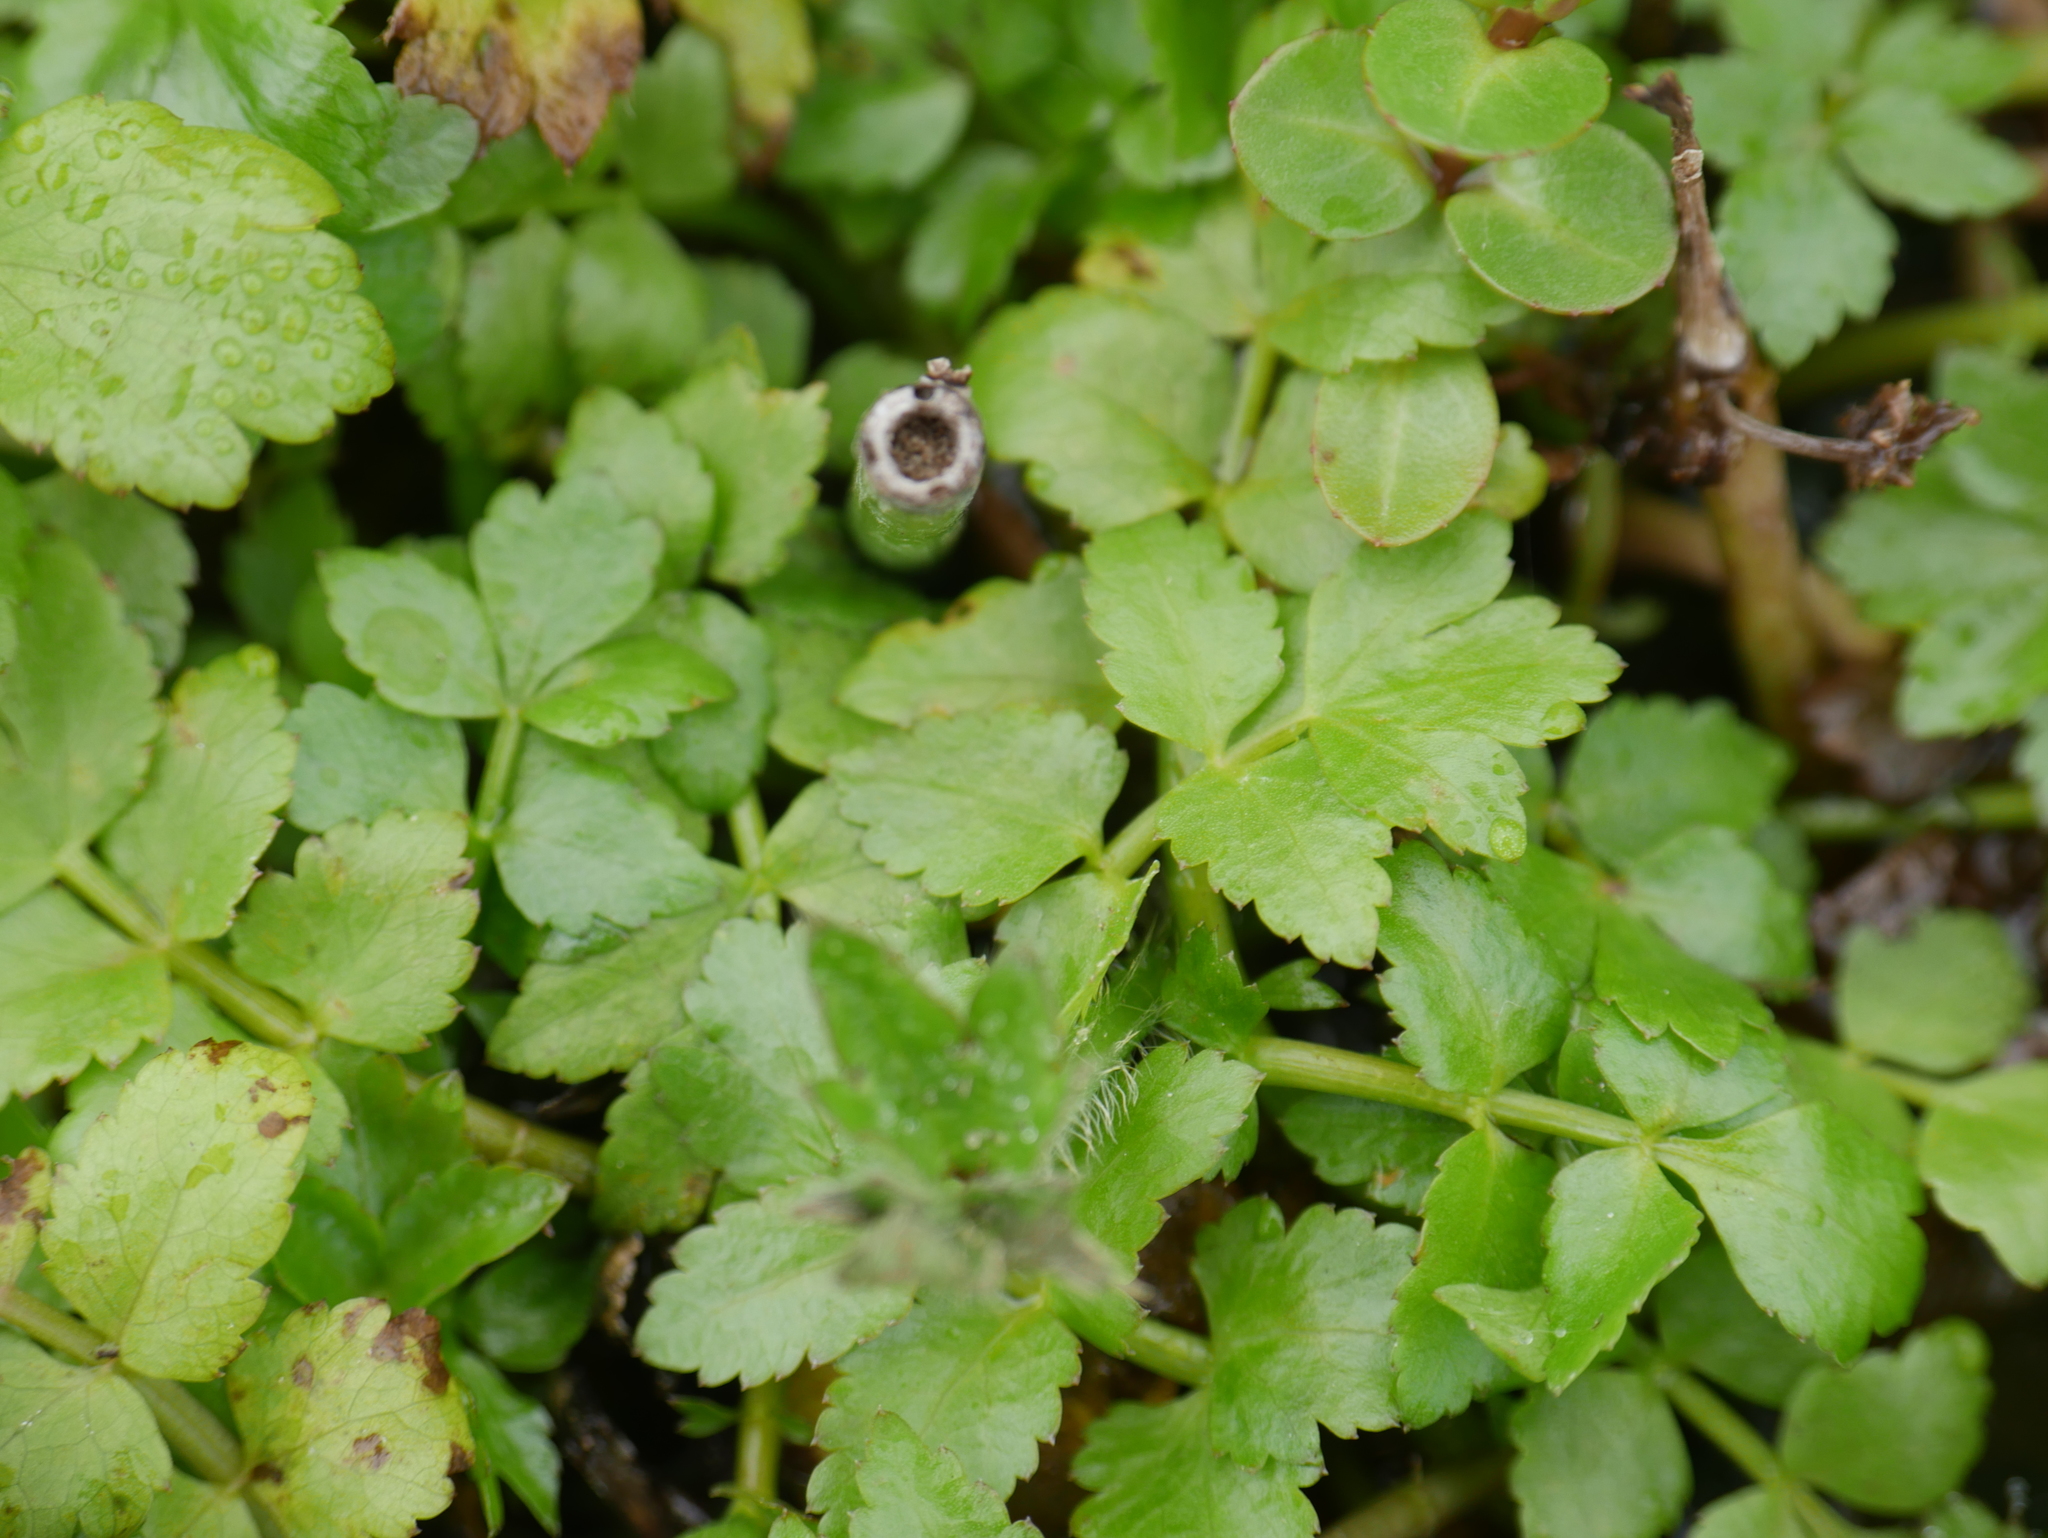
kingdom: Plantae
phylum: Tracheophyta
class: Magnoliopsida
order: Apiales
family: Apiaceae
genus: Berula
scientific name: Berula erecta
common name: Lesser water-parsnip
